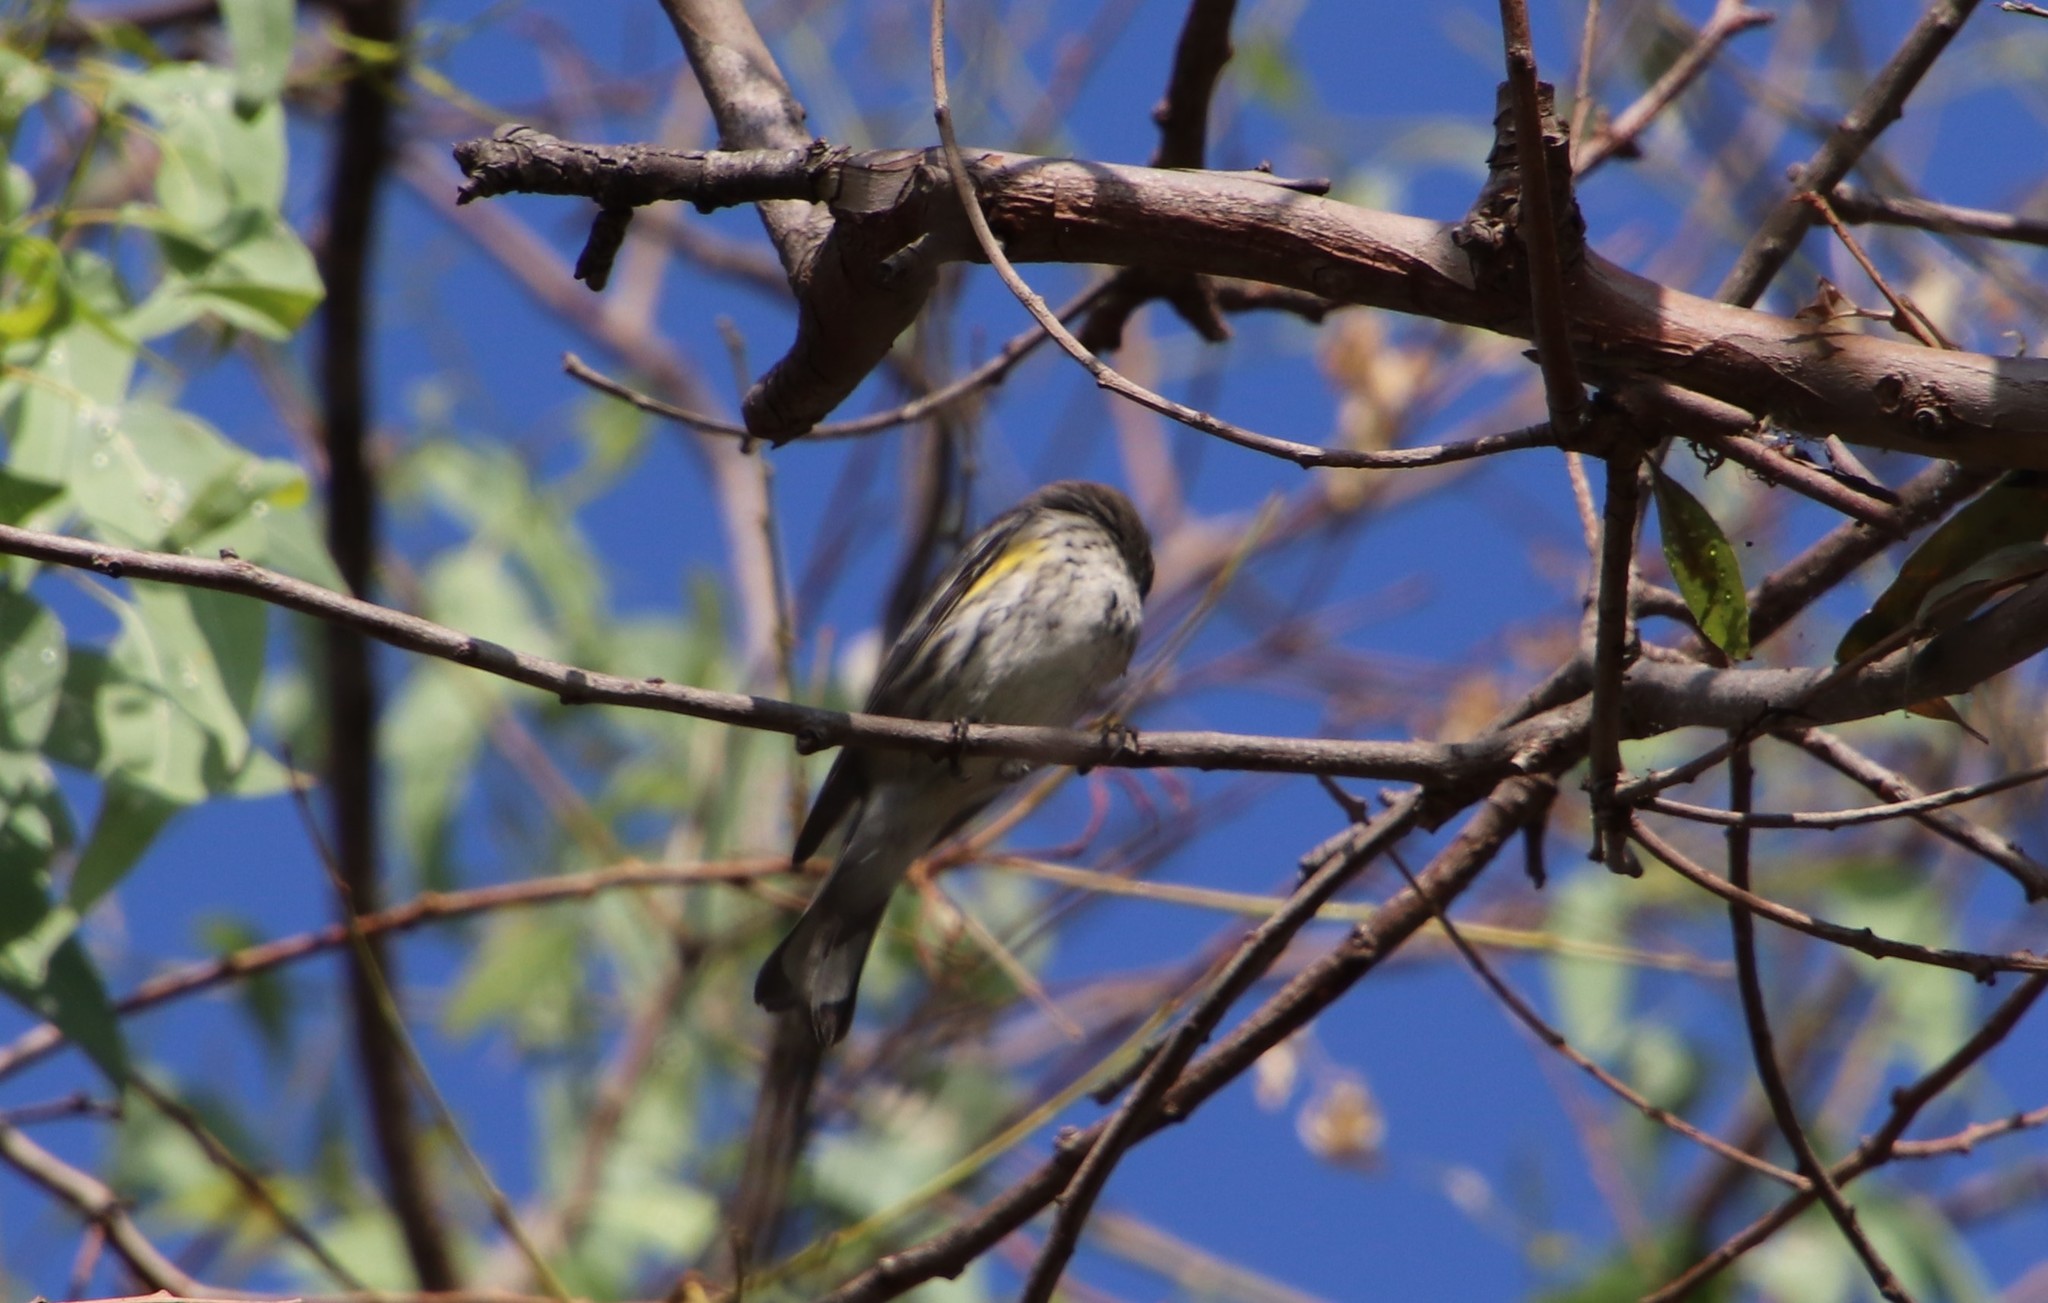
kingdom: Animalia
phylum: Chordata
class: Aves
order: Passeriformes
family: Parulidae
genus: Setophaga
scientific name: Setophaga coronata
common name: Myrtle warbler
